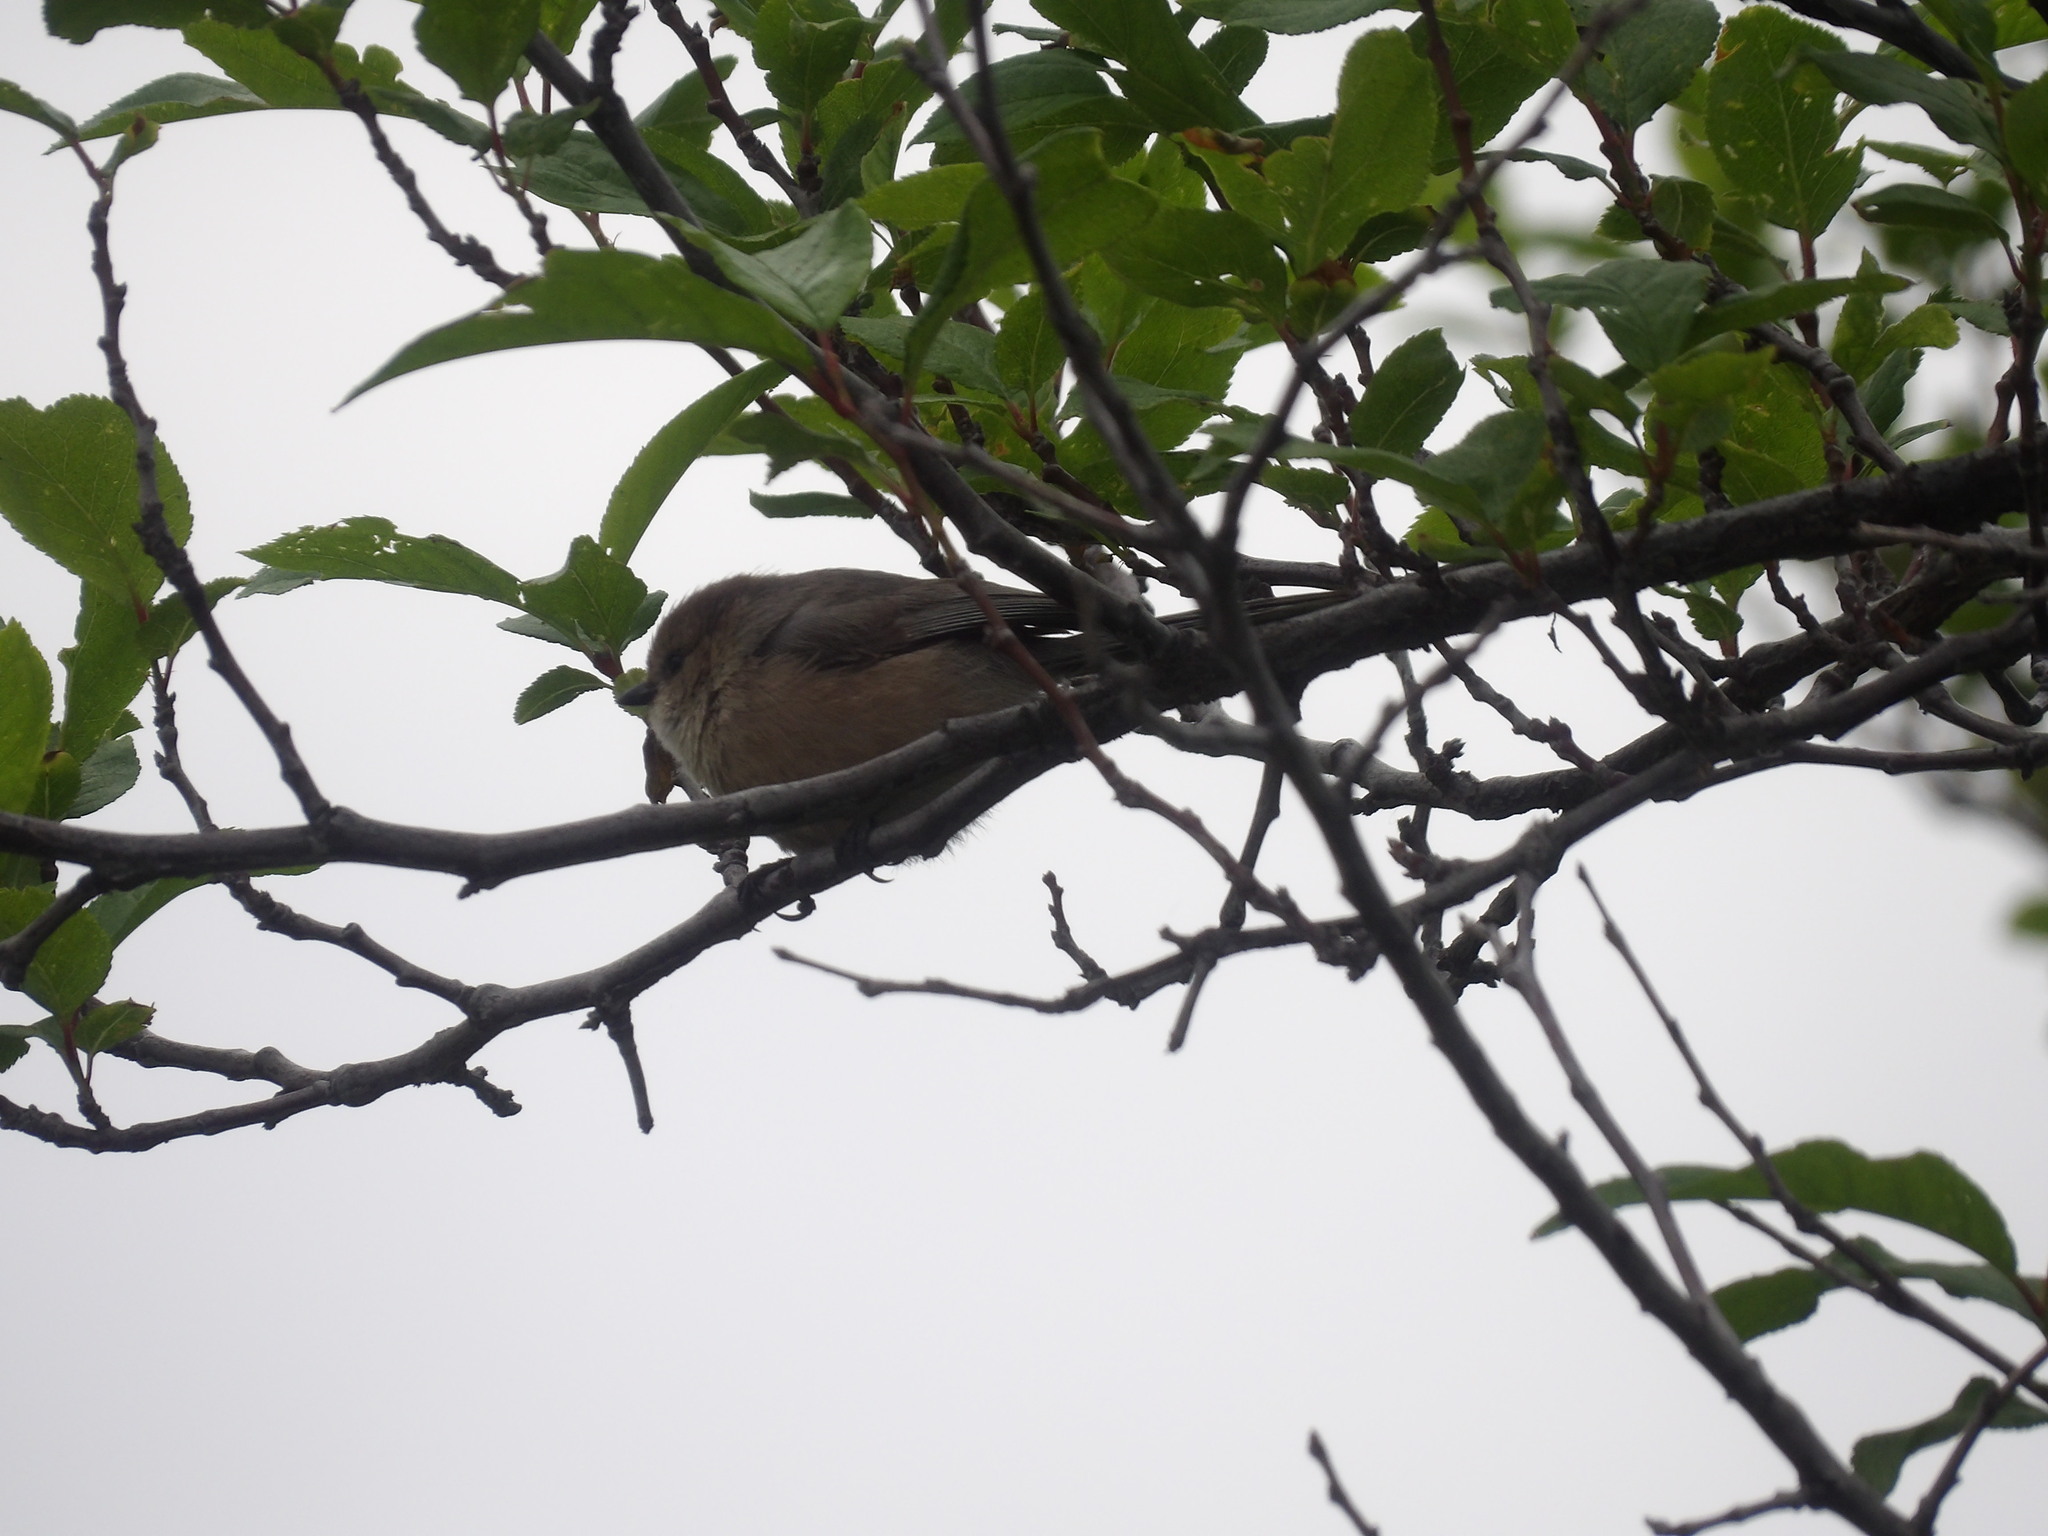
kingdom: Animalia
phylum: Chordata
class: Aves
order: Passeriformes
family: Aegithalidae
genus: Psaltriparus
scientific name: Psaltriparus minimus
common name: American bushtit
